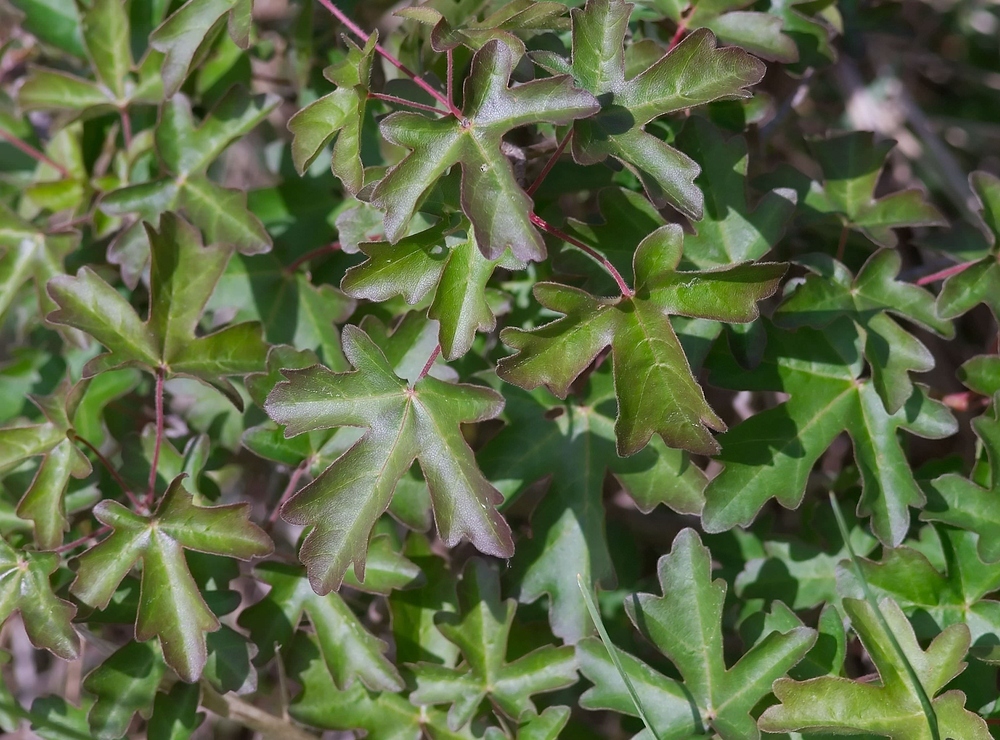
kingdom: Plantae
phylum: Tracheophyta
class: Magnoliopsida
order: Sapindales
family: Sapindaceae
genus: Acer
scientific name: Acer campestre
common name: Field maple
